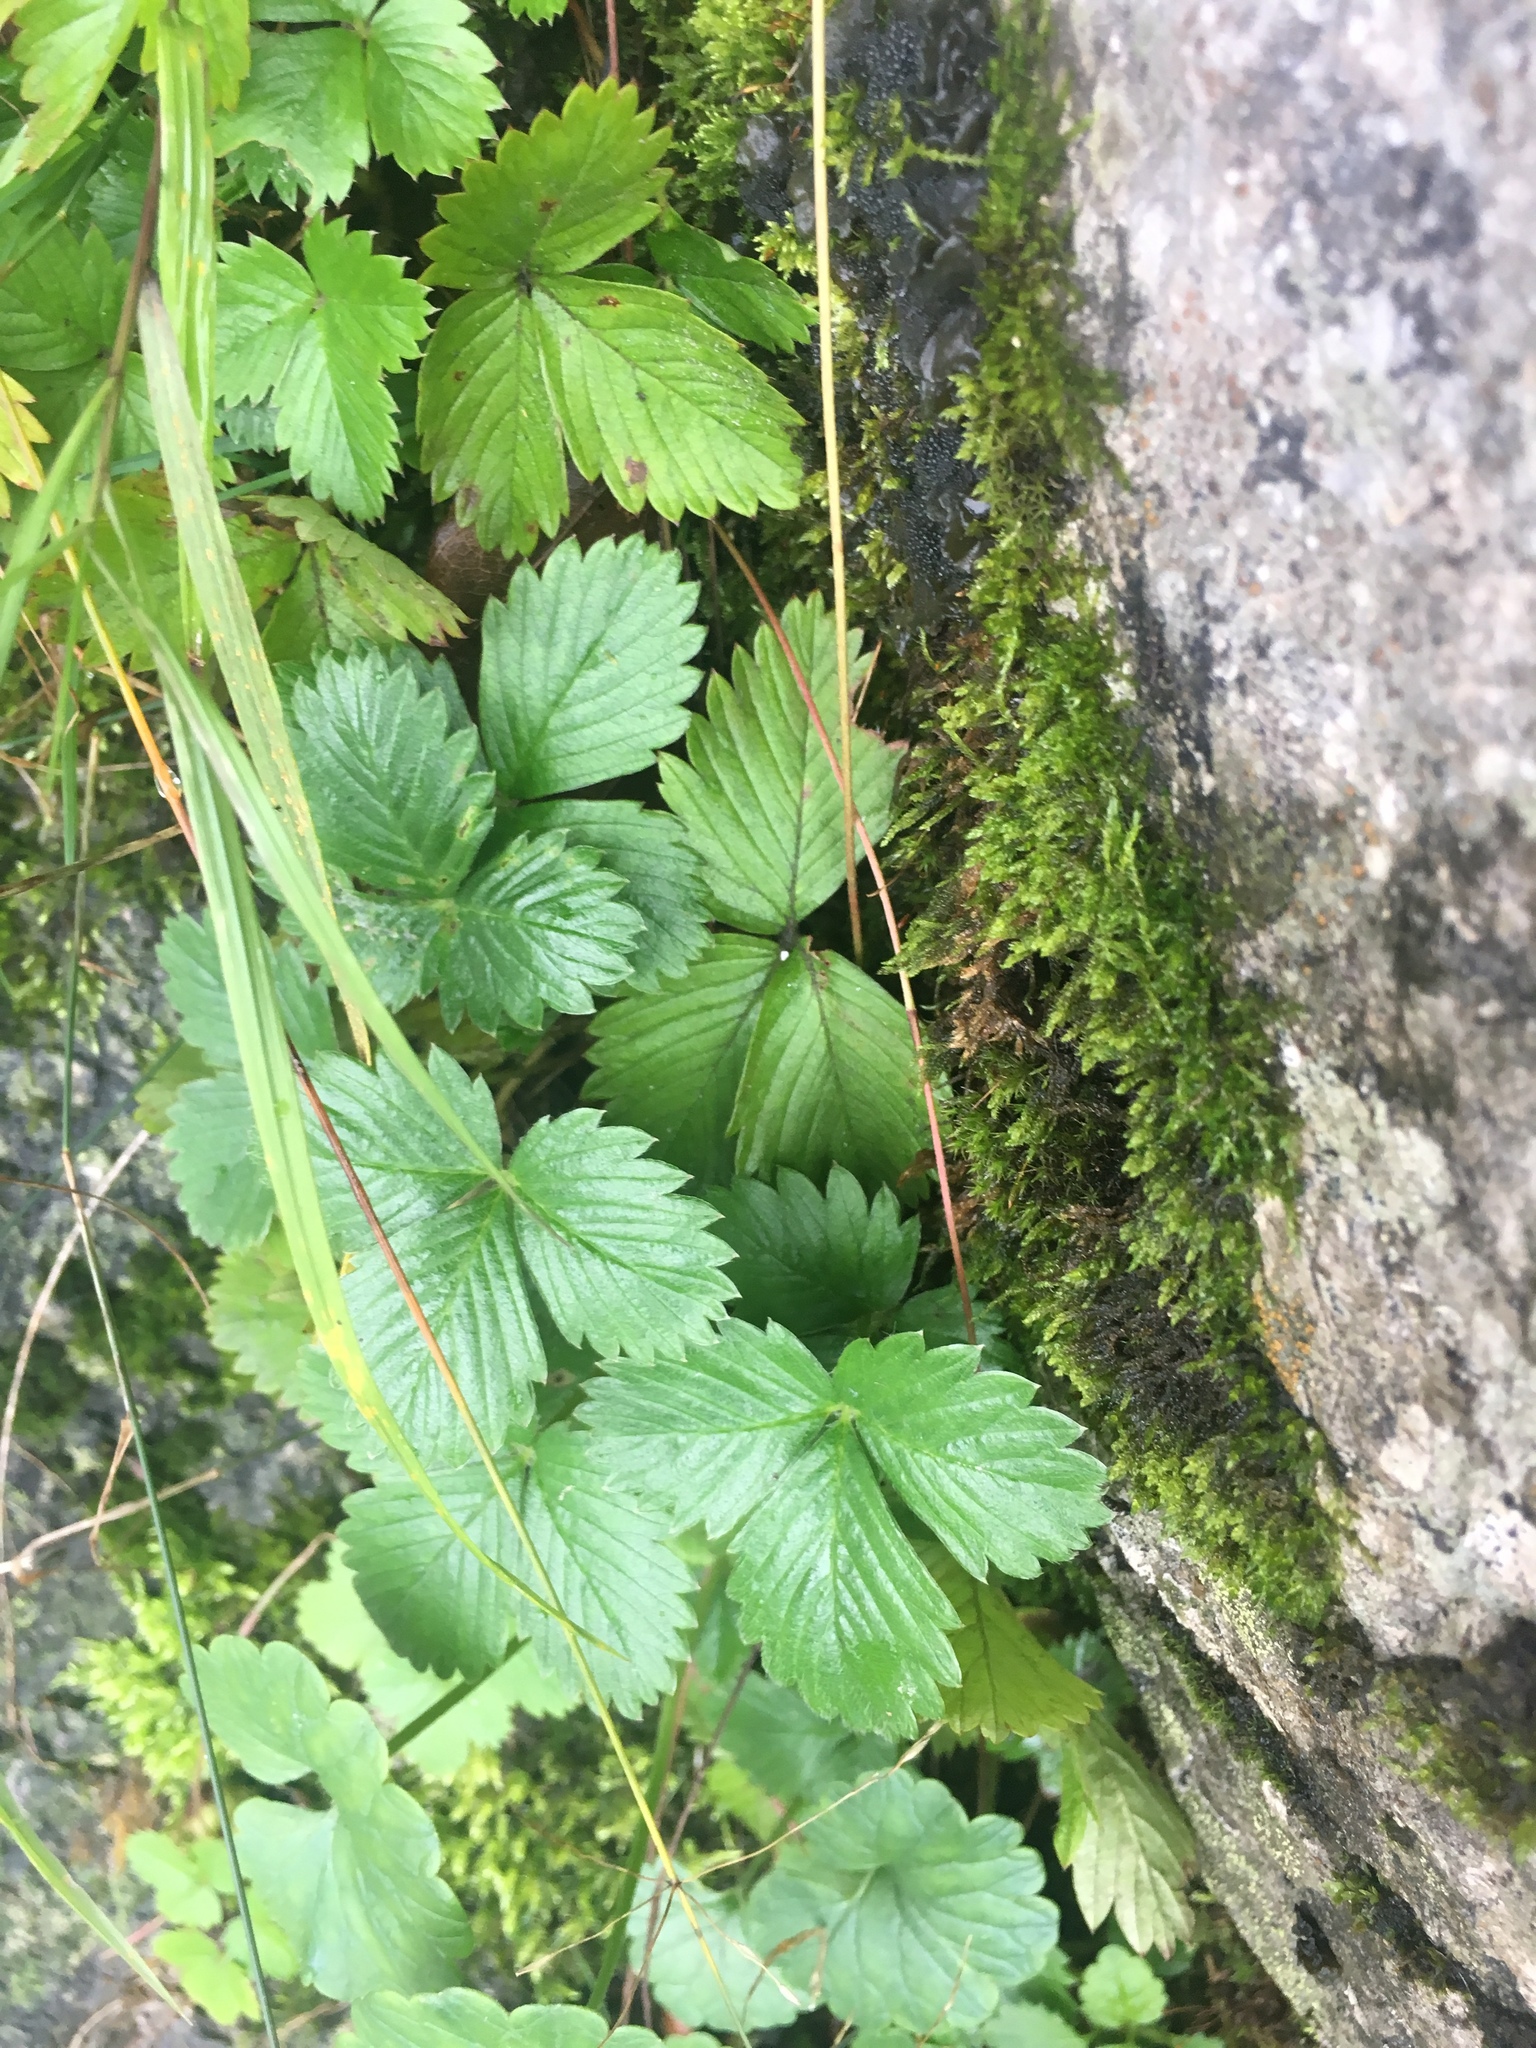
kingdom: Plantae
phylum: Tracheophyta
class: Magnoliopsida
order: Rosales
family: Rosaceae
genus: Fragaria
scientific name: Fragaria viridis
